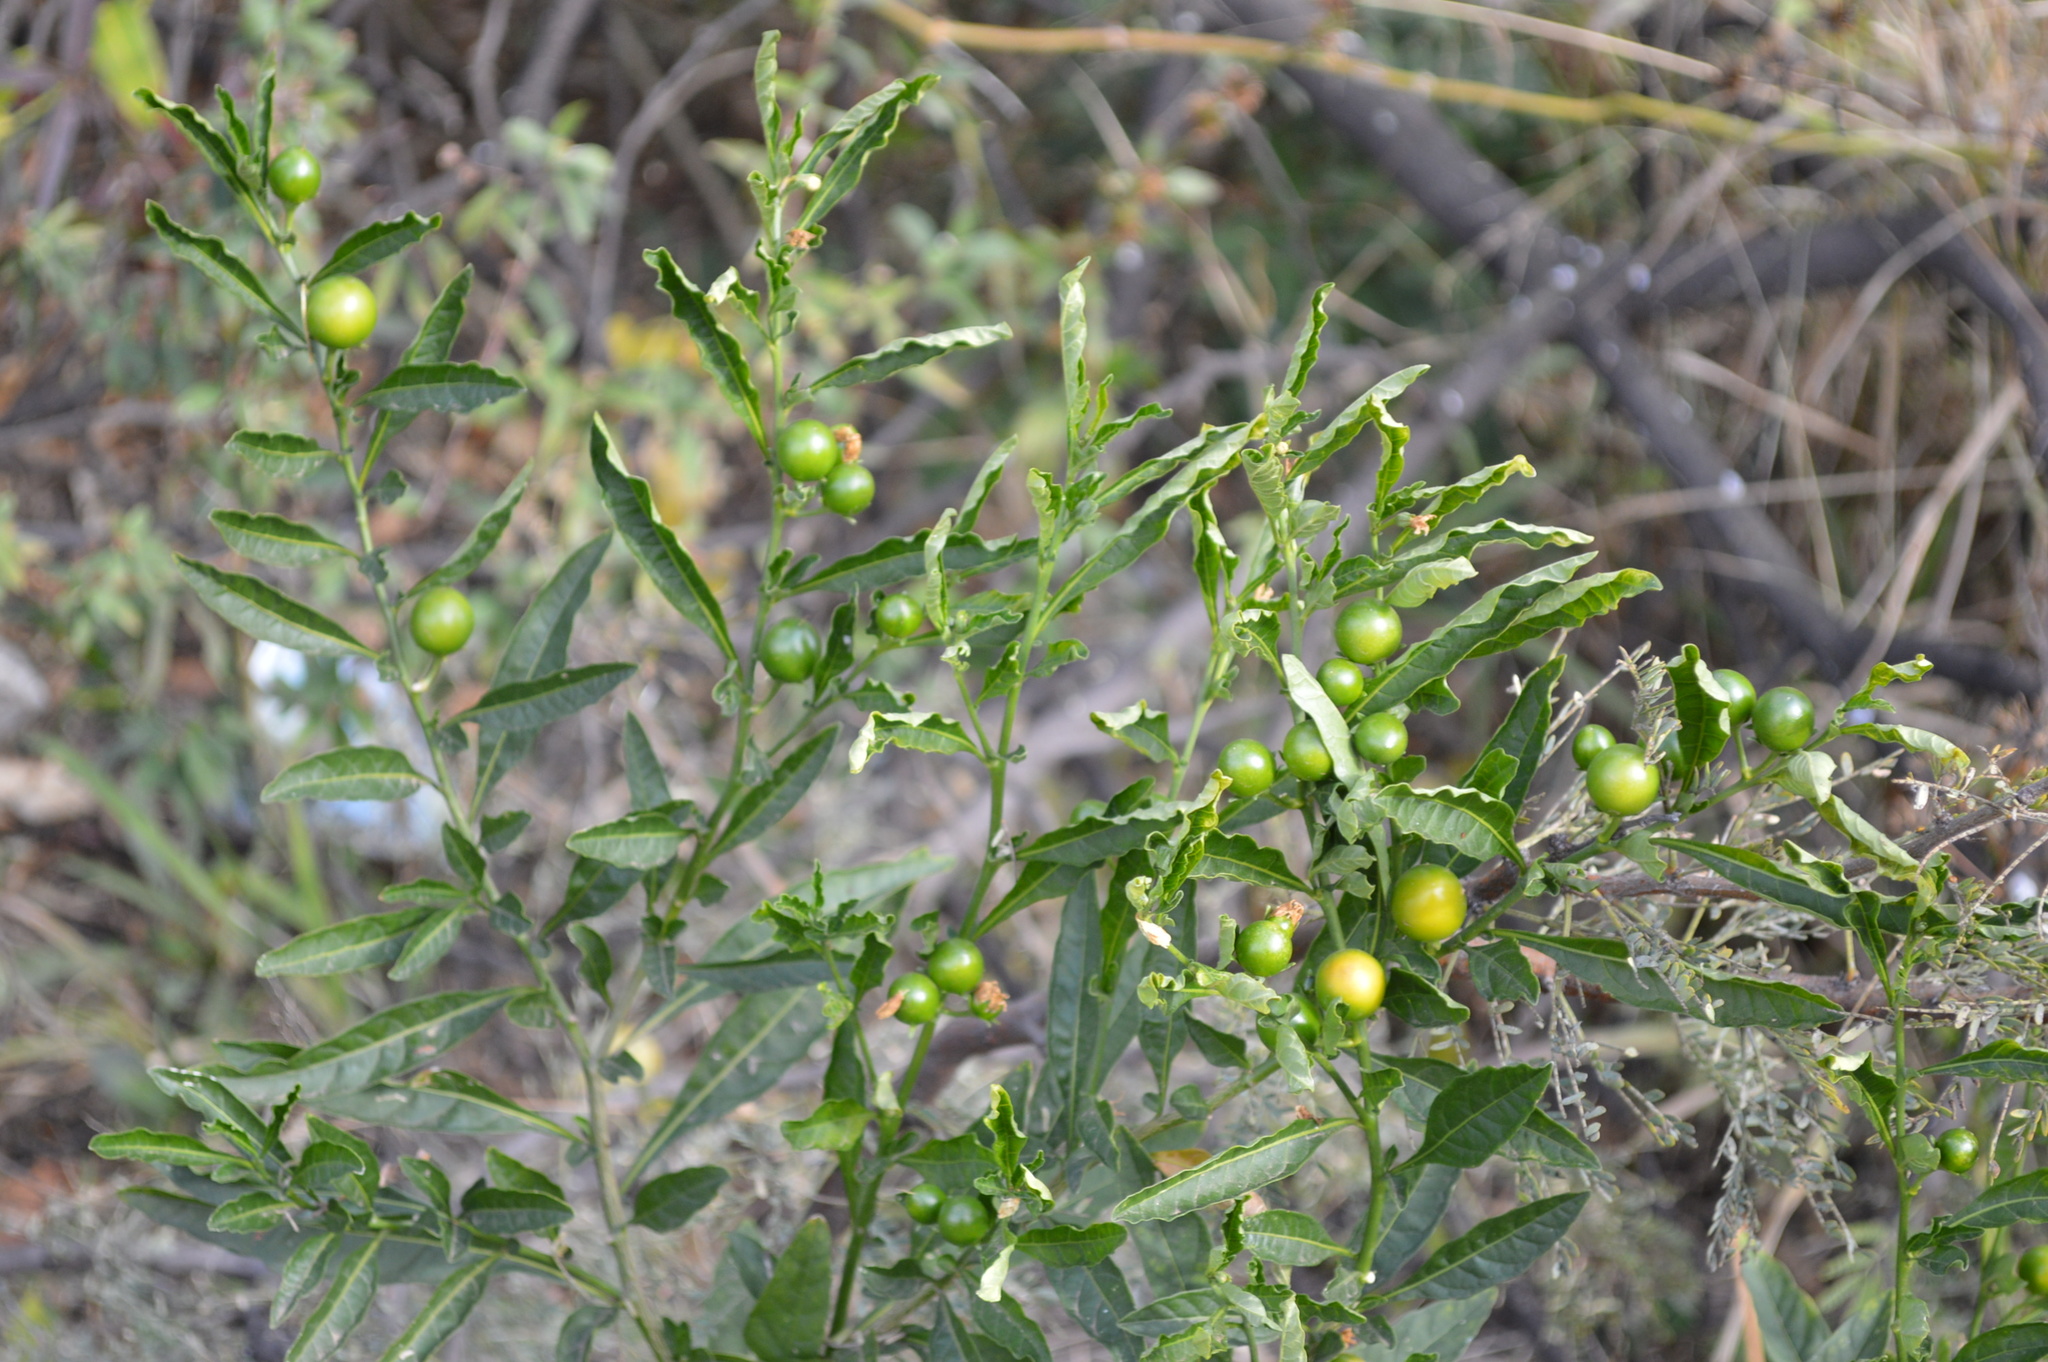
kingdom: Plantae
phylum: Tracheophyta
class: Magnoliopsida
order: Solanales
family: Solanaceae
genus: Solanum
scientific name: Solanum pseudocapsicum
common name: Jerusalem cherry
